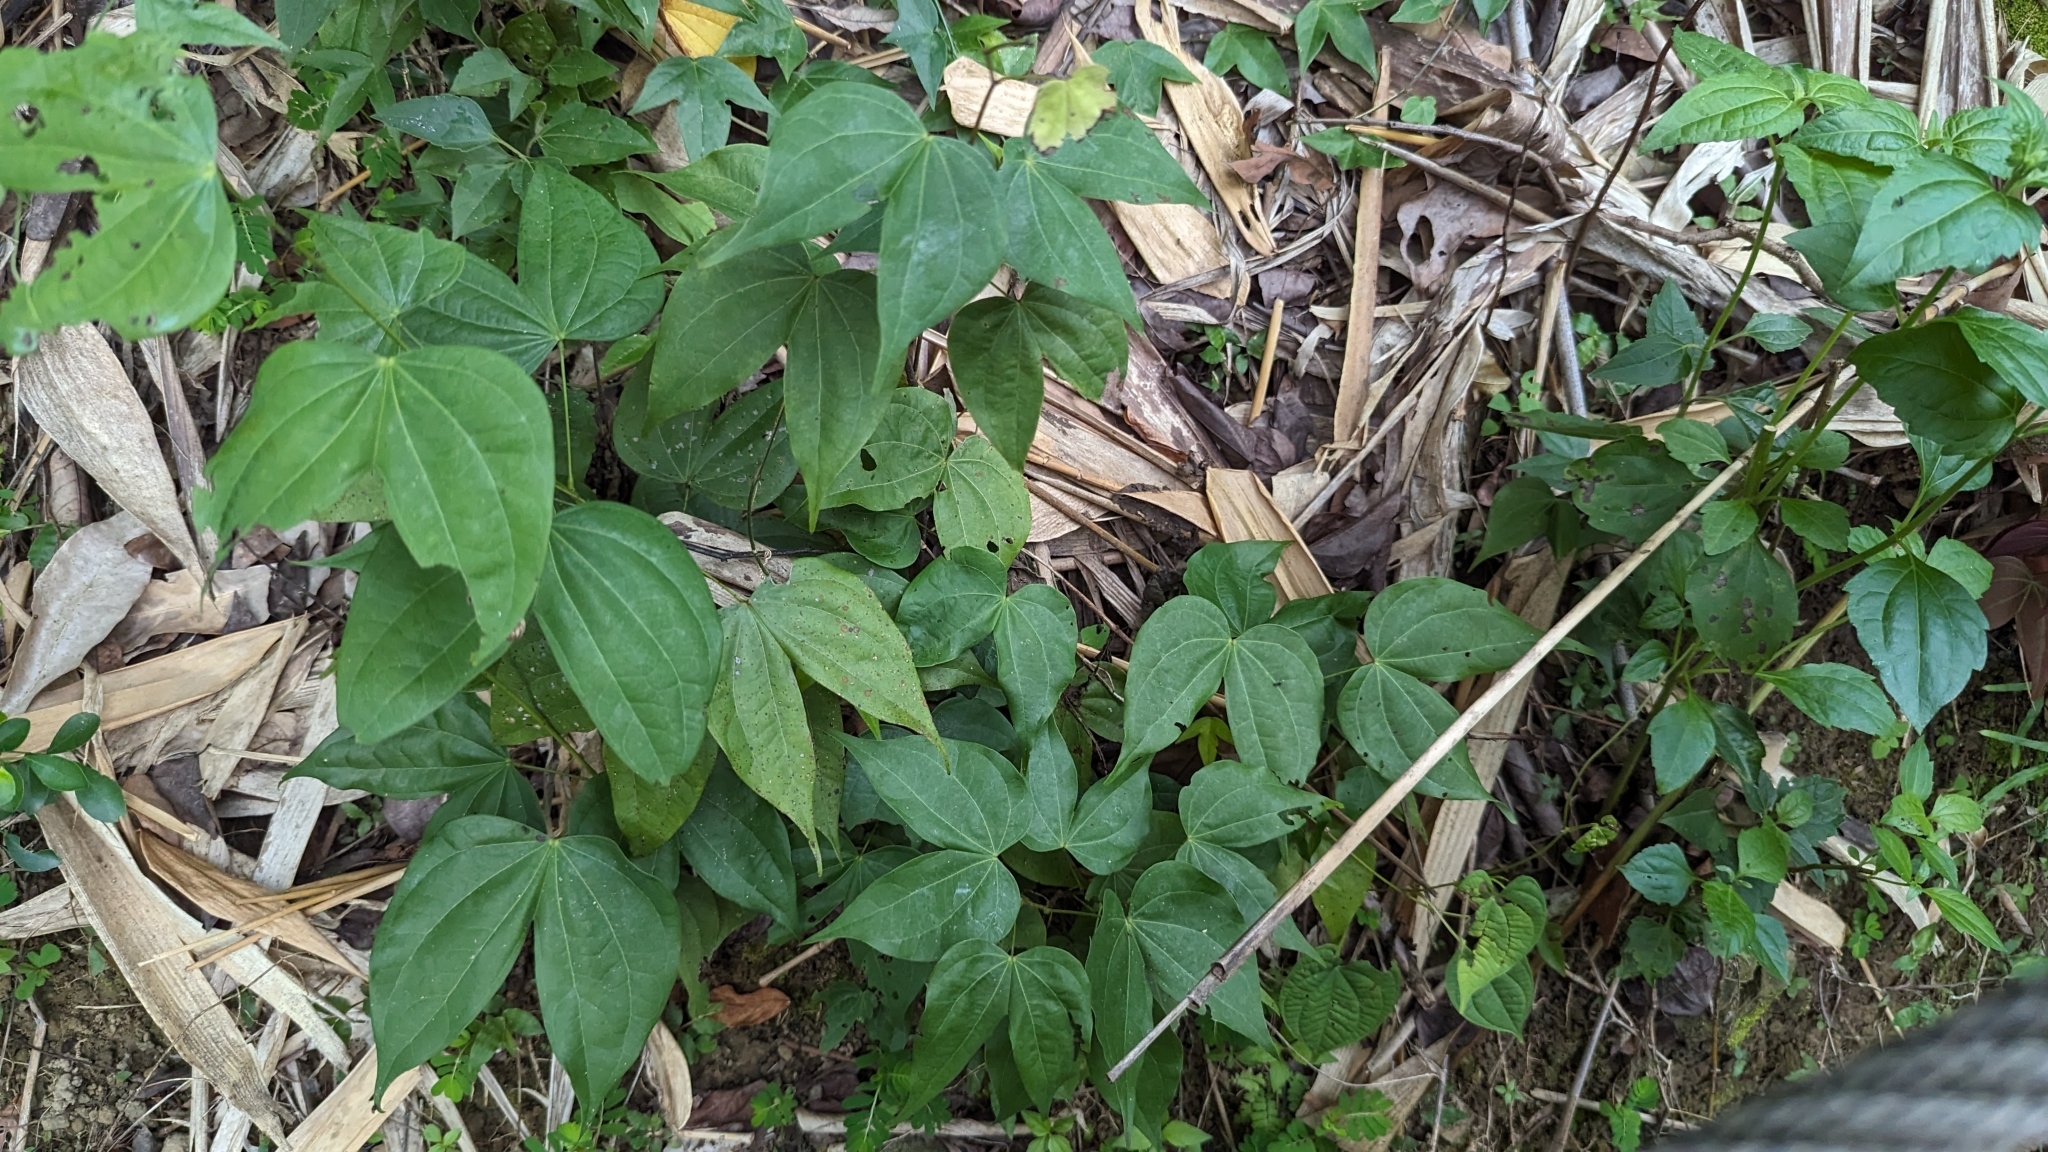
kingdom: Plantae
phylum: Tracheophyta
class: Magnoliopsida
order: Fabales
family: Fabaceae
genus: Phanera
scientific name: Phanera championii
